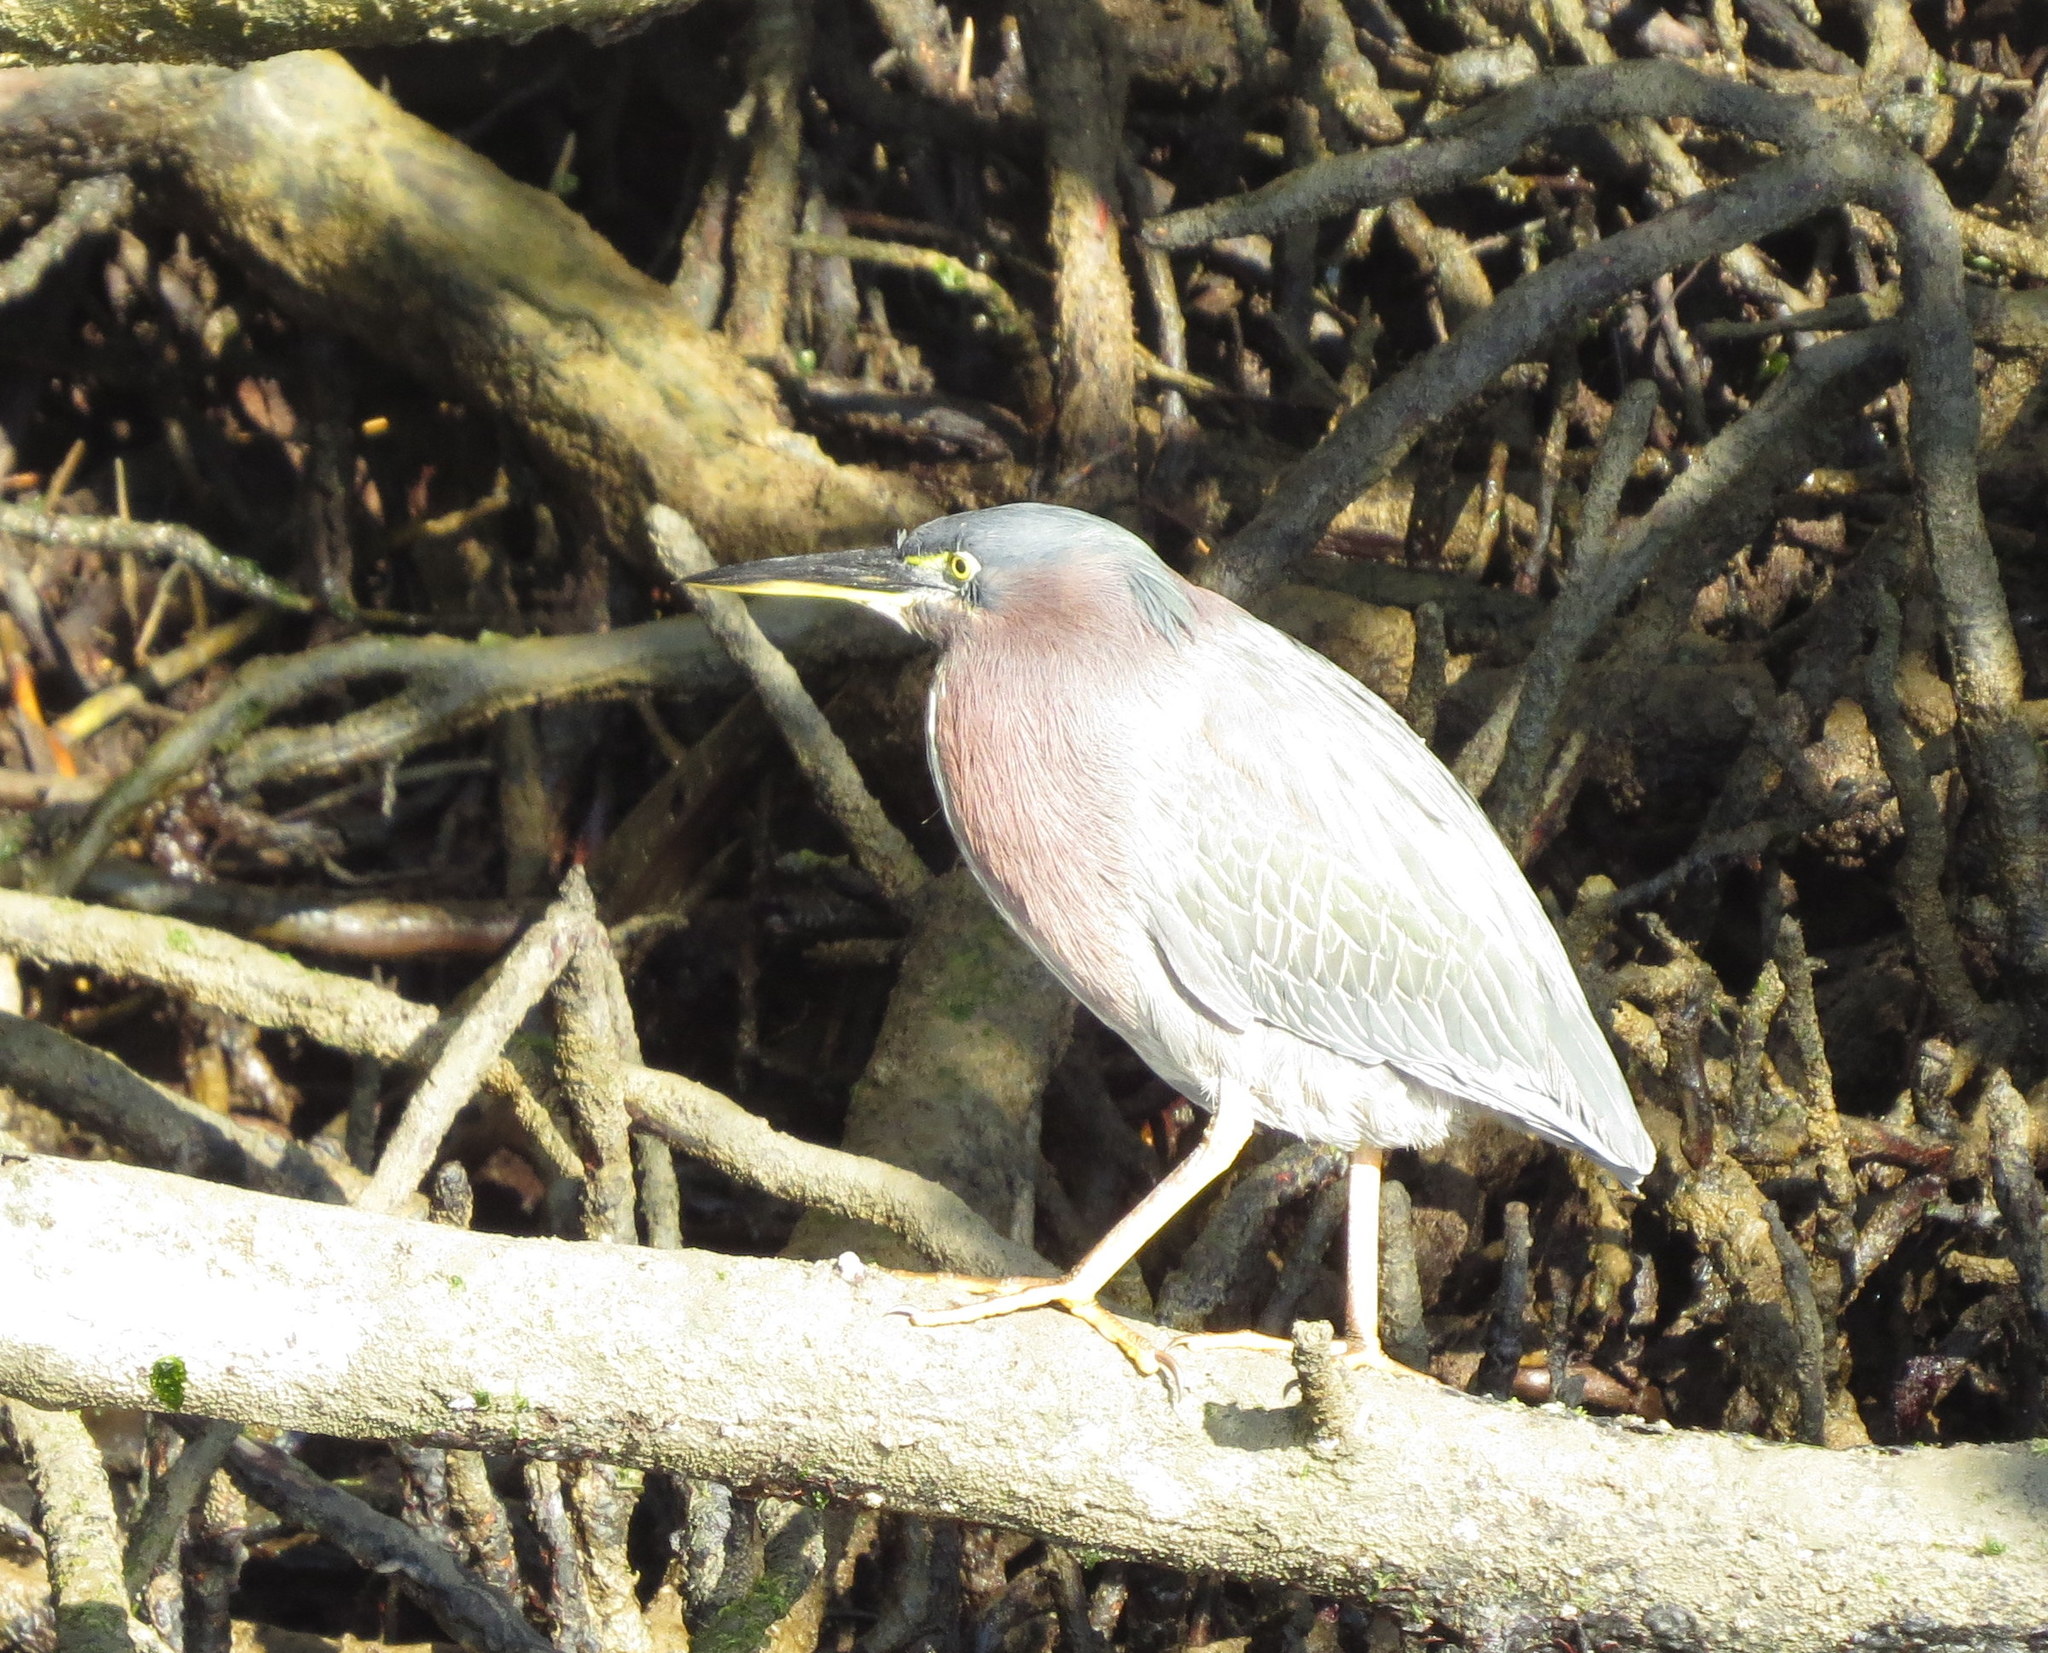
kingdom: Animalia
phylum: Chordata
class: Aves
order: Pelecaniformes
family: Ardeidae
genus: Butorides
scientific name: Butorides virescens
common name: Green heron
